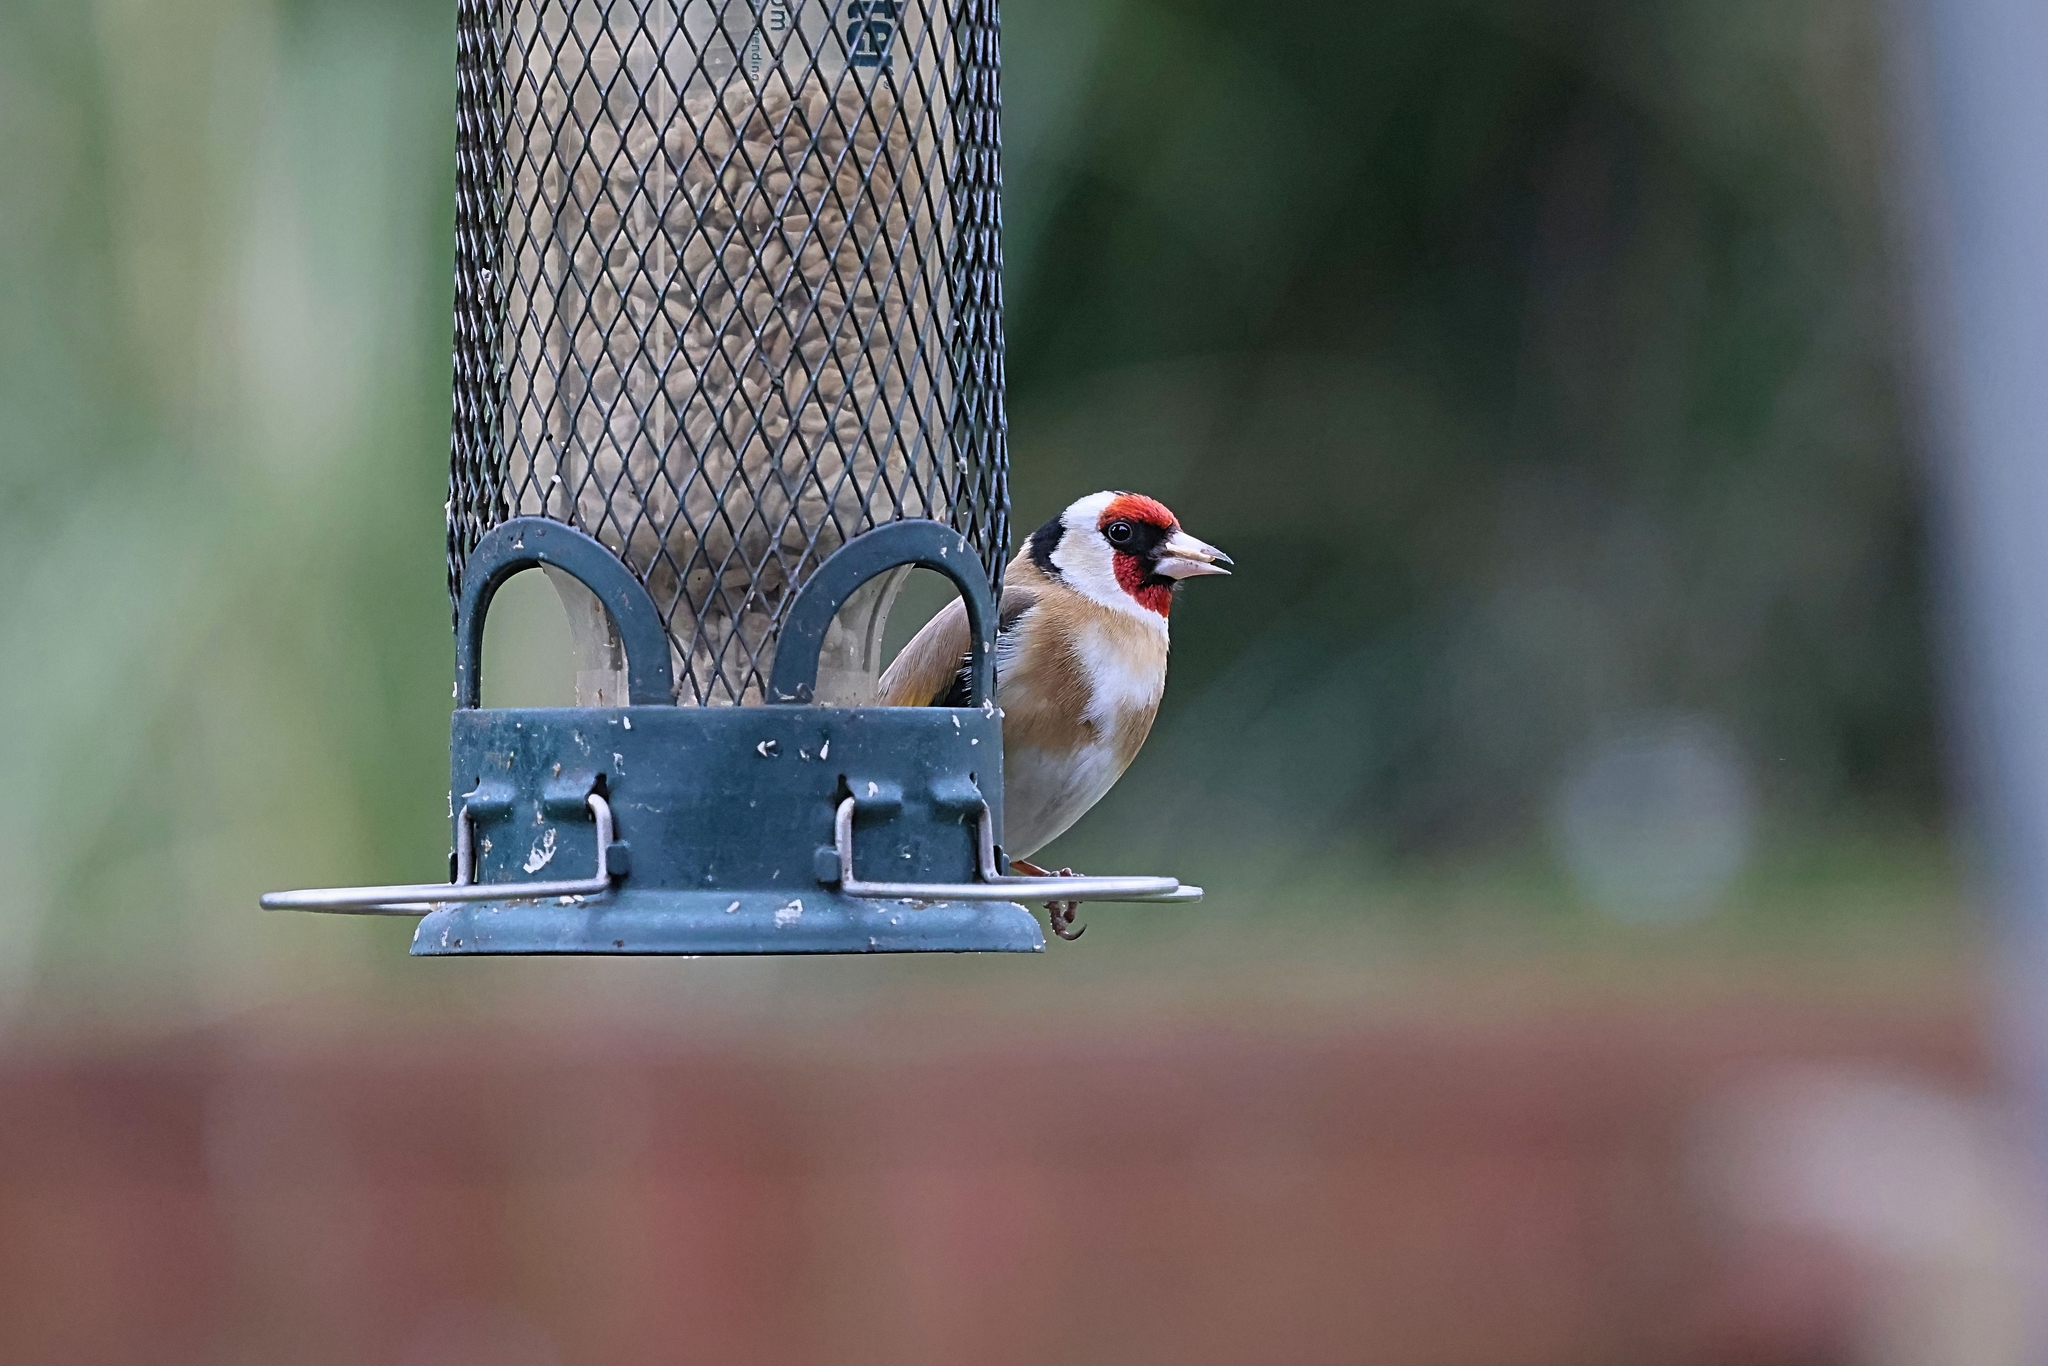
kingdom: Animalia
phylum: Chordata
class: Aves
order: Passeriformes
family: Fringillidae
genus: Carduelis
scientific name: Carduelis carduelis
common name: European goldfinch
